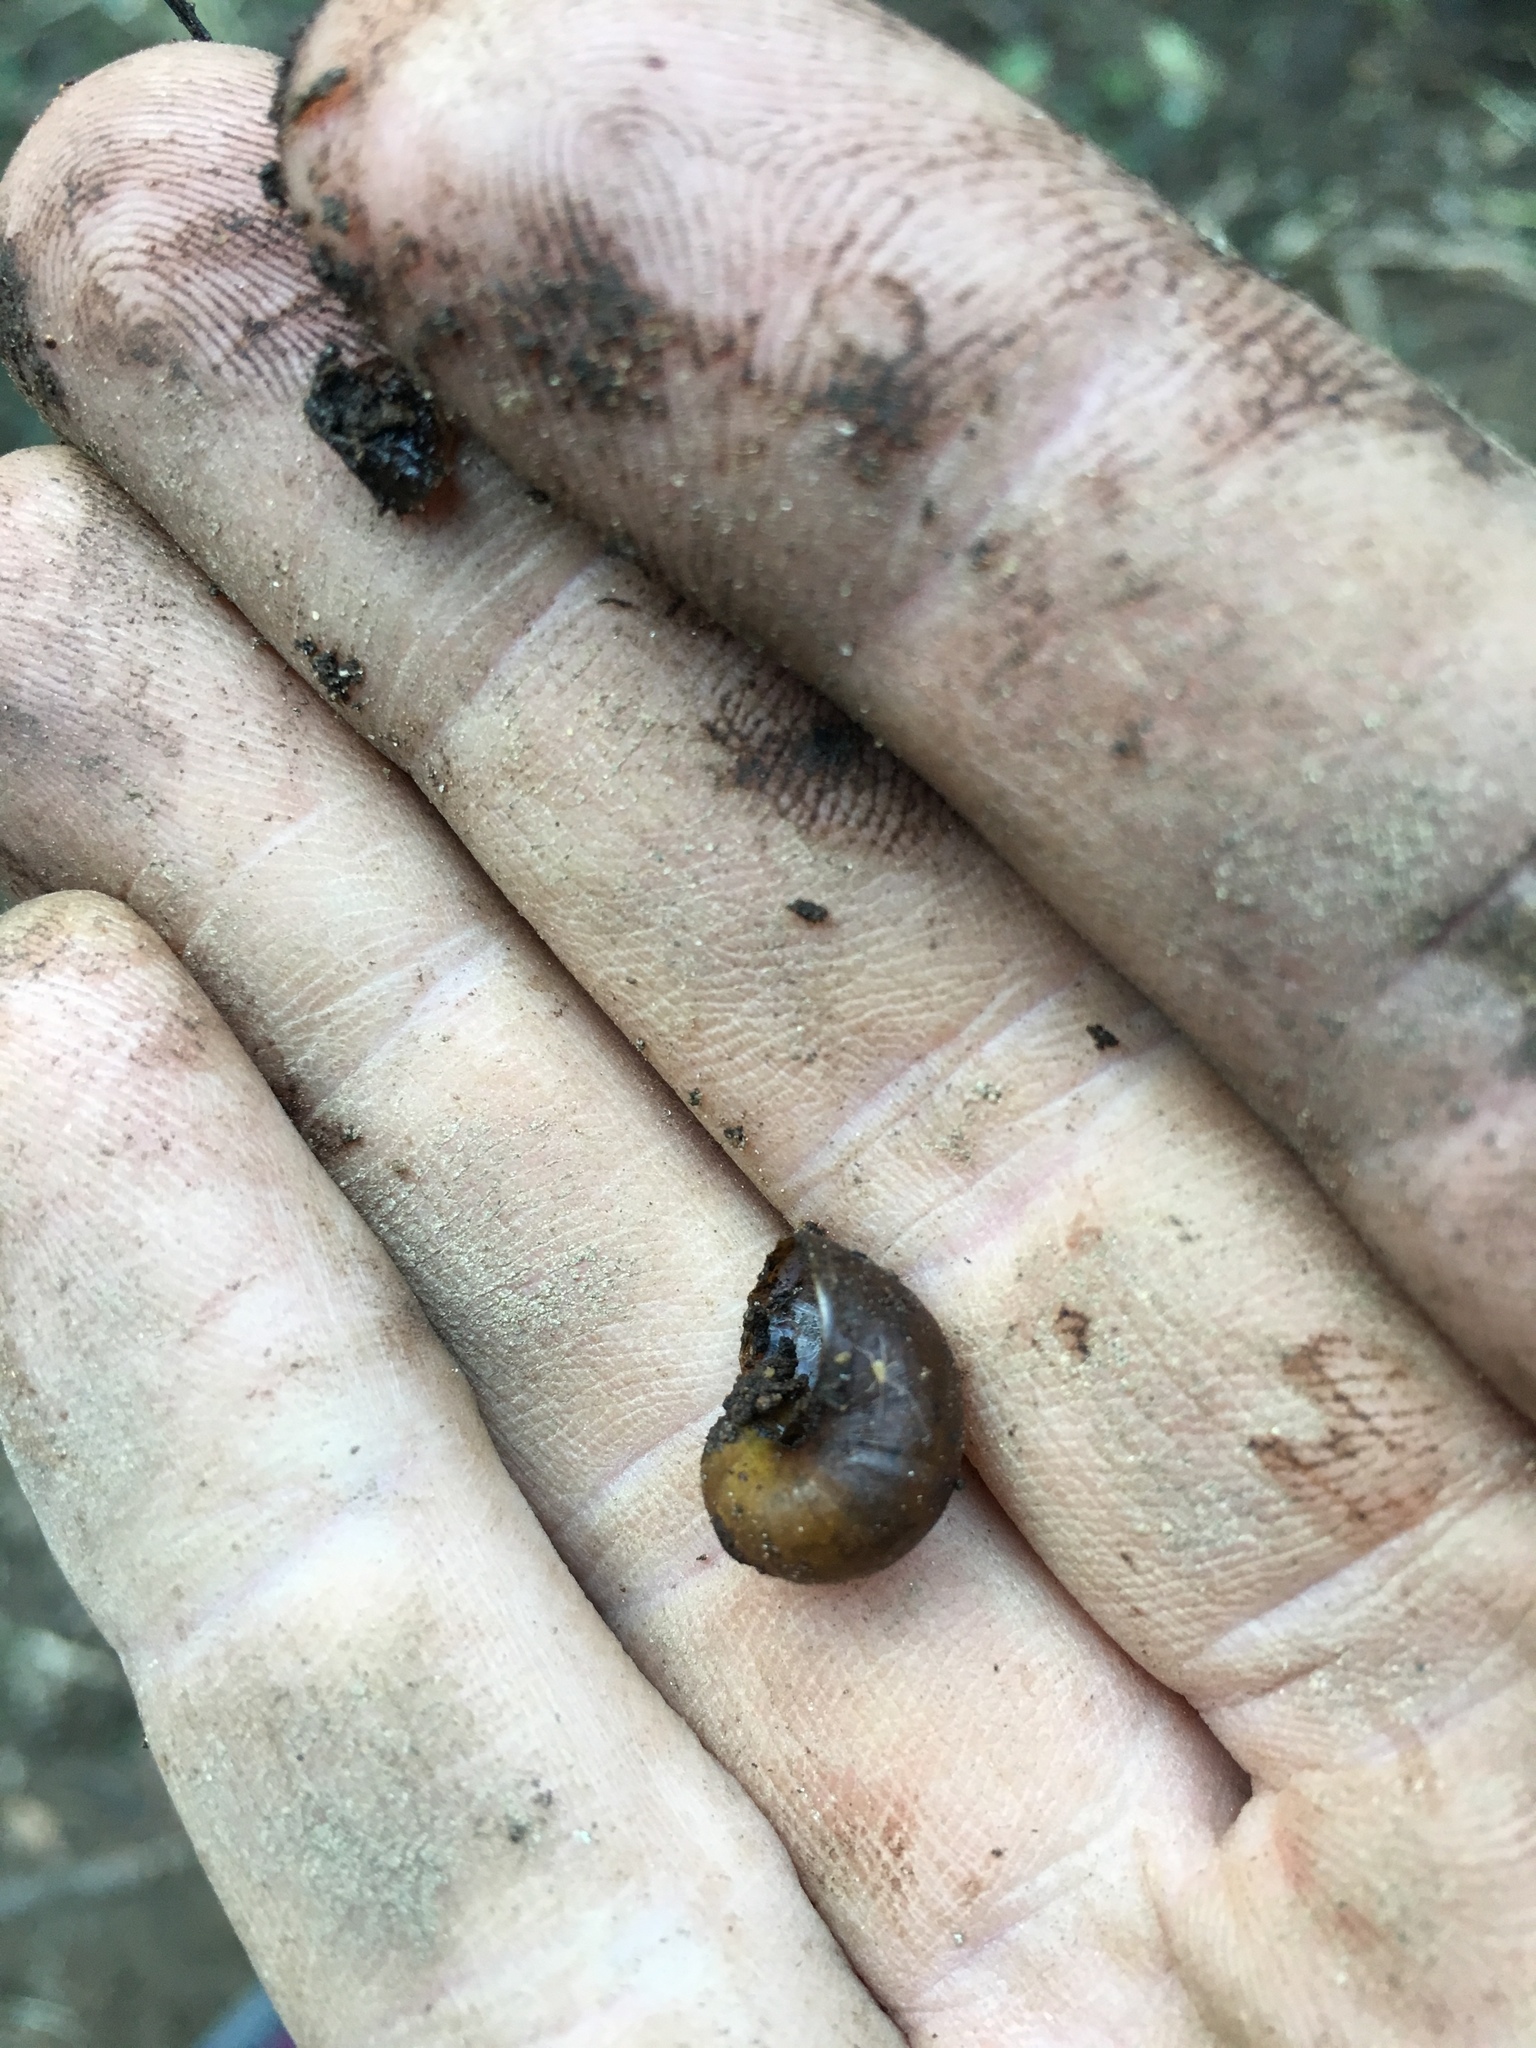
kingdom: Animalia
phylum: Mollusca
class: Gastropoda
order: Stylommatophora
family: Rhytididae
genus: Wainuia
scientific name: Wainuia urnula
